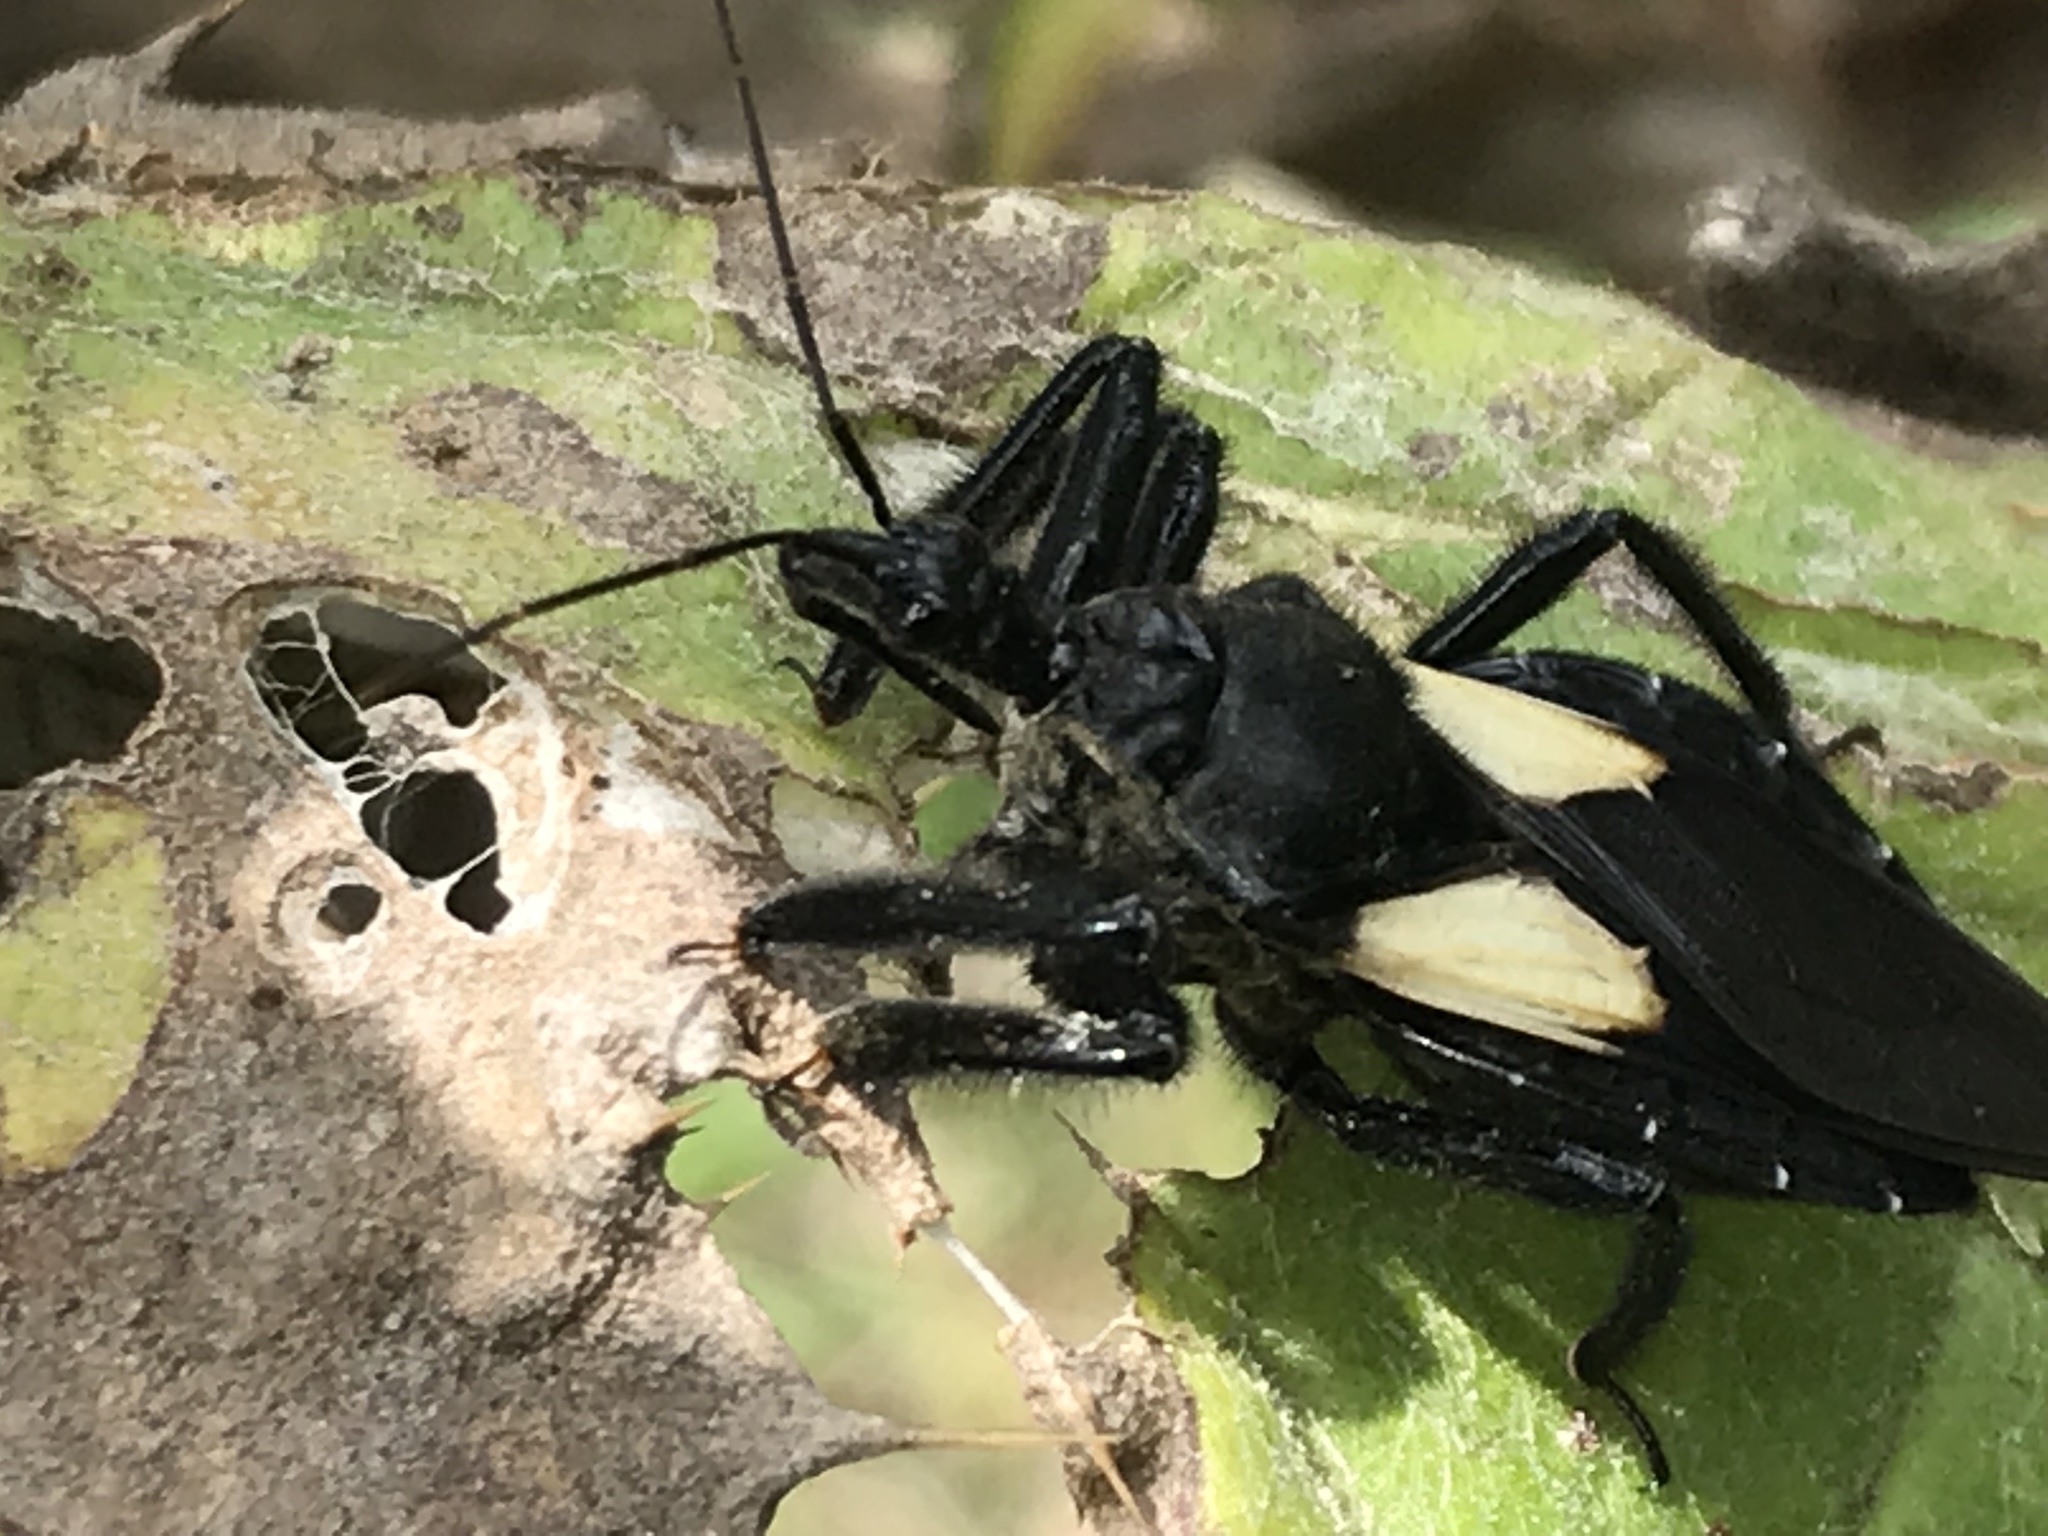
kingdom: Animalia
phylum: Arthropoda
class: Insecta
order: Hemiptera
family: Reduviidae
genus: Apiomerus
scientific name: Apiomerus elatus
